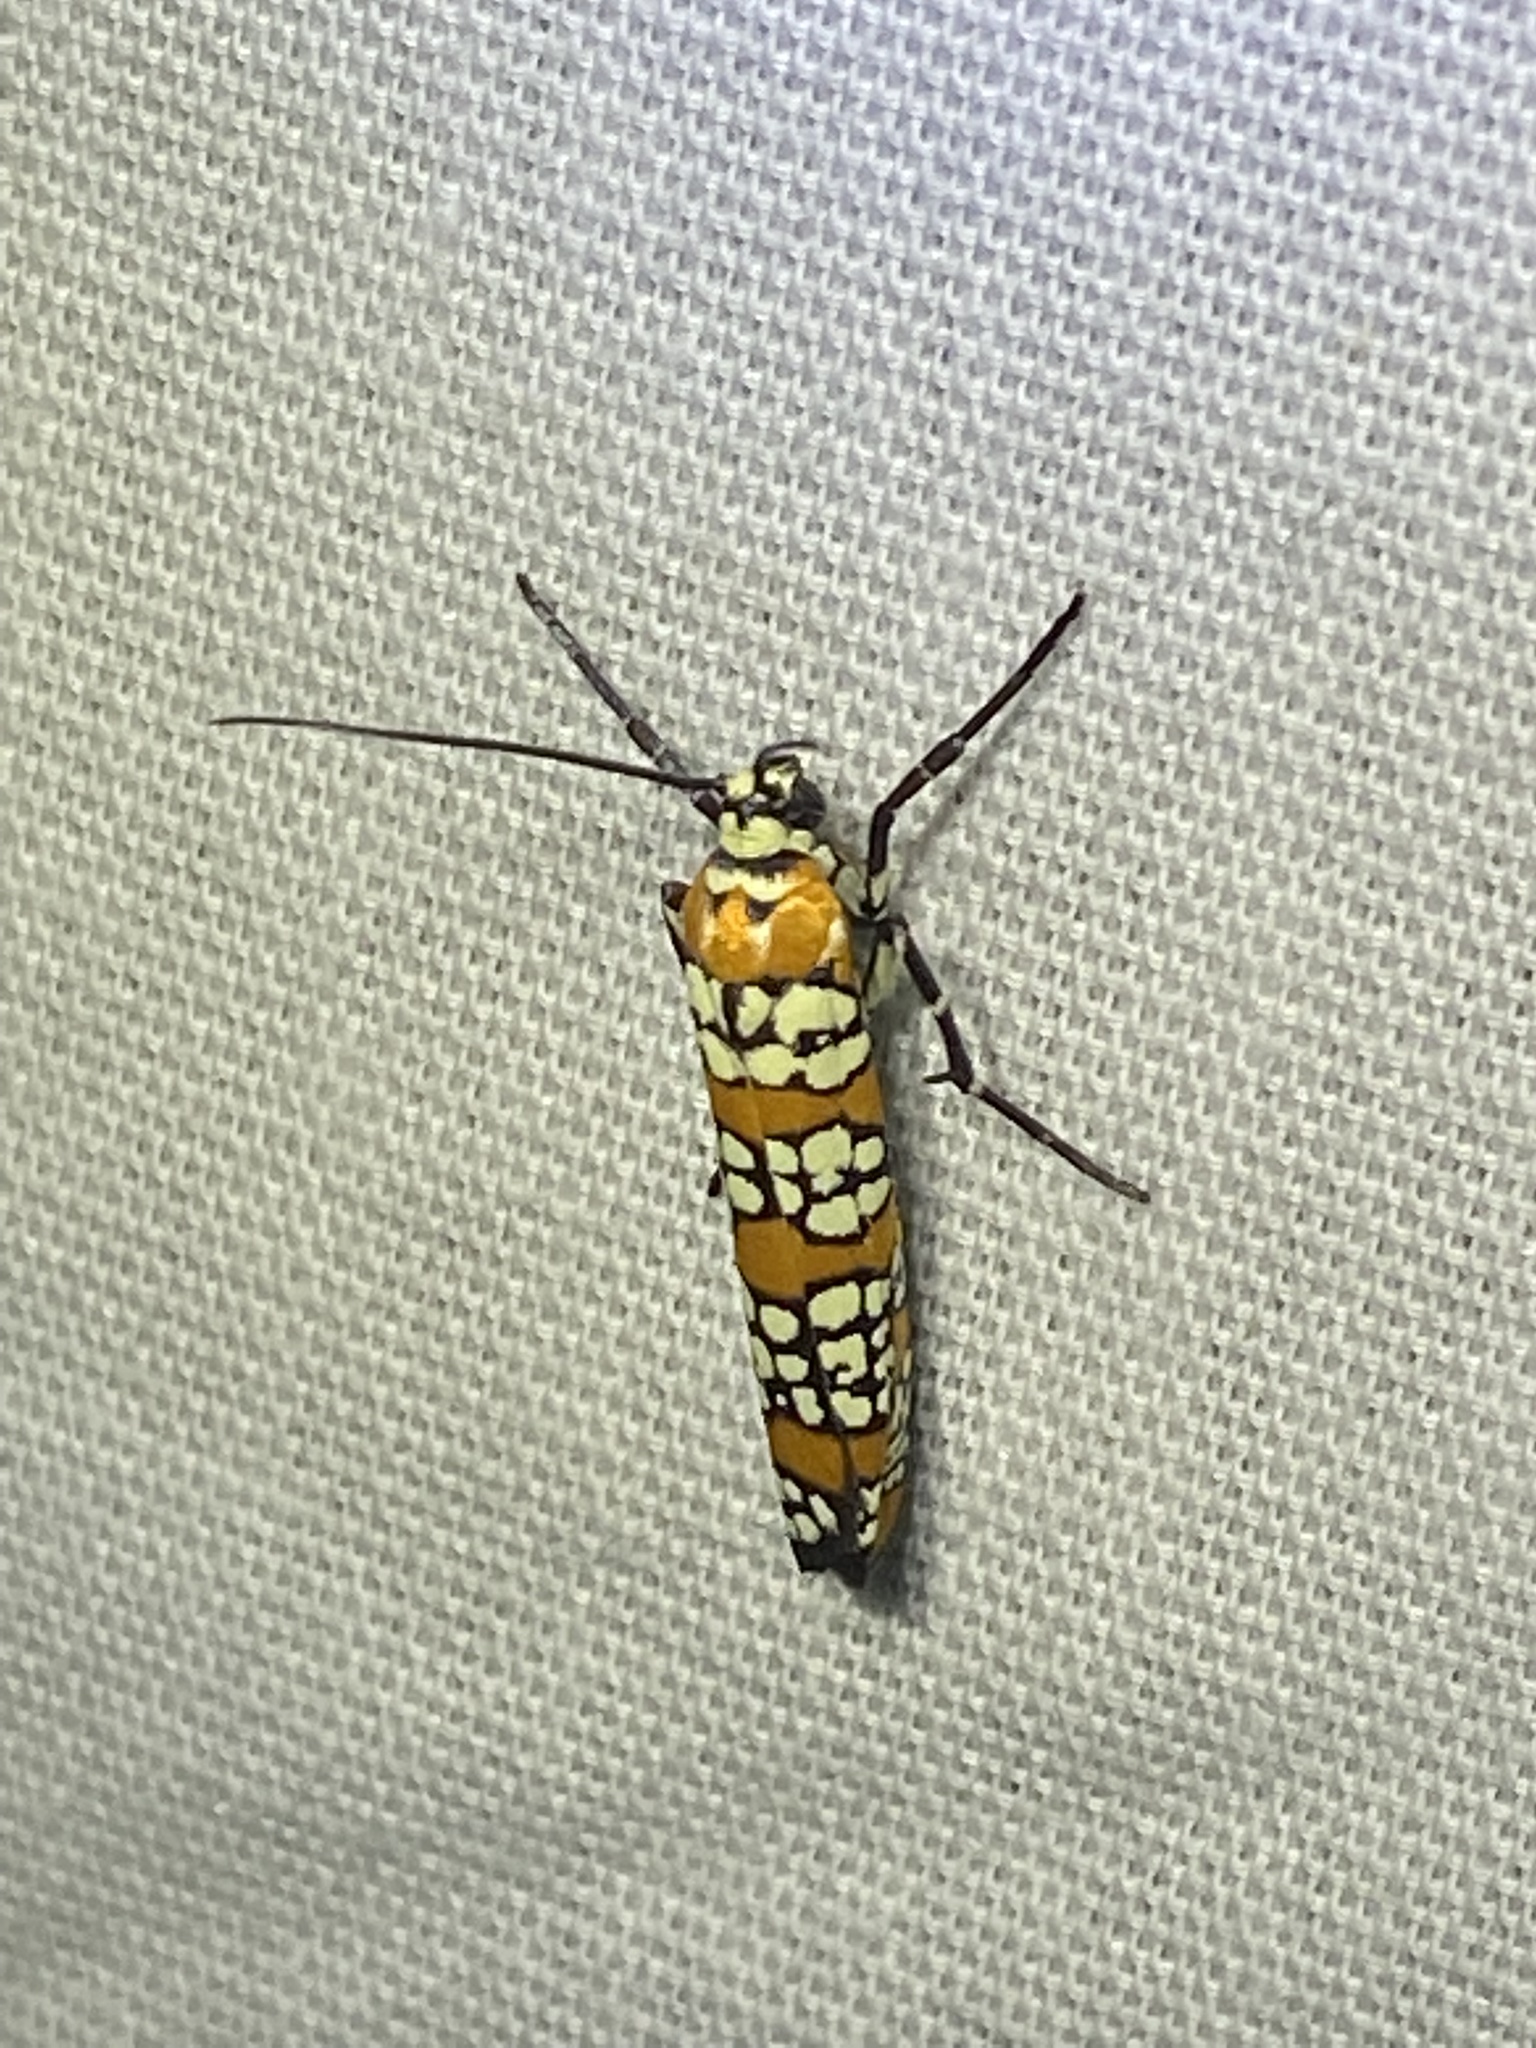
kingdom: Animalia
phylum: Arthropoda
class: Insecta
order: Lepidoptera
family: Attevidae
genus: Atteva
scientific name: Atteva punctella
